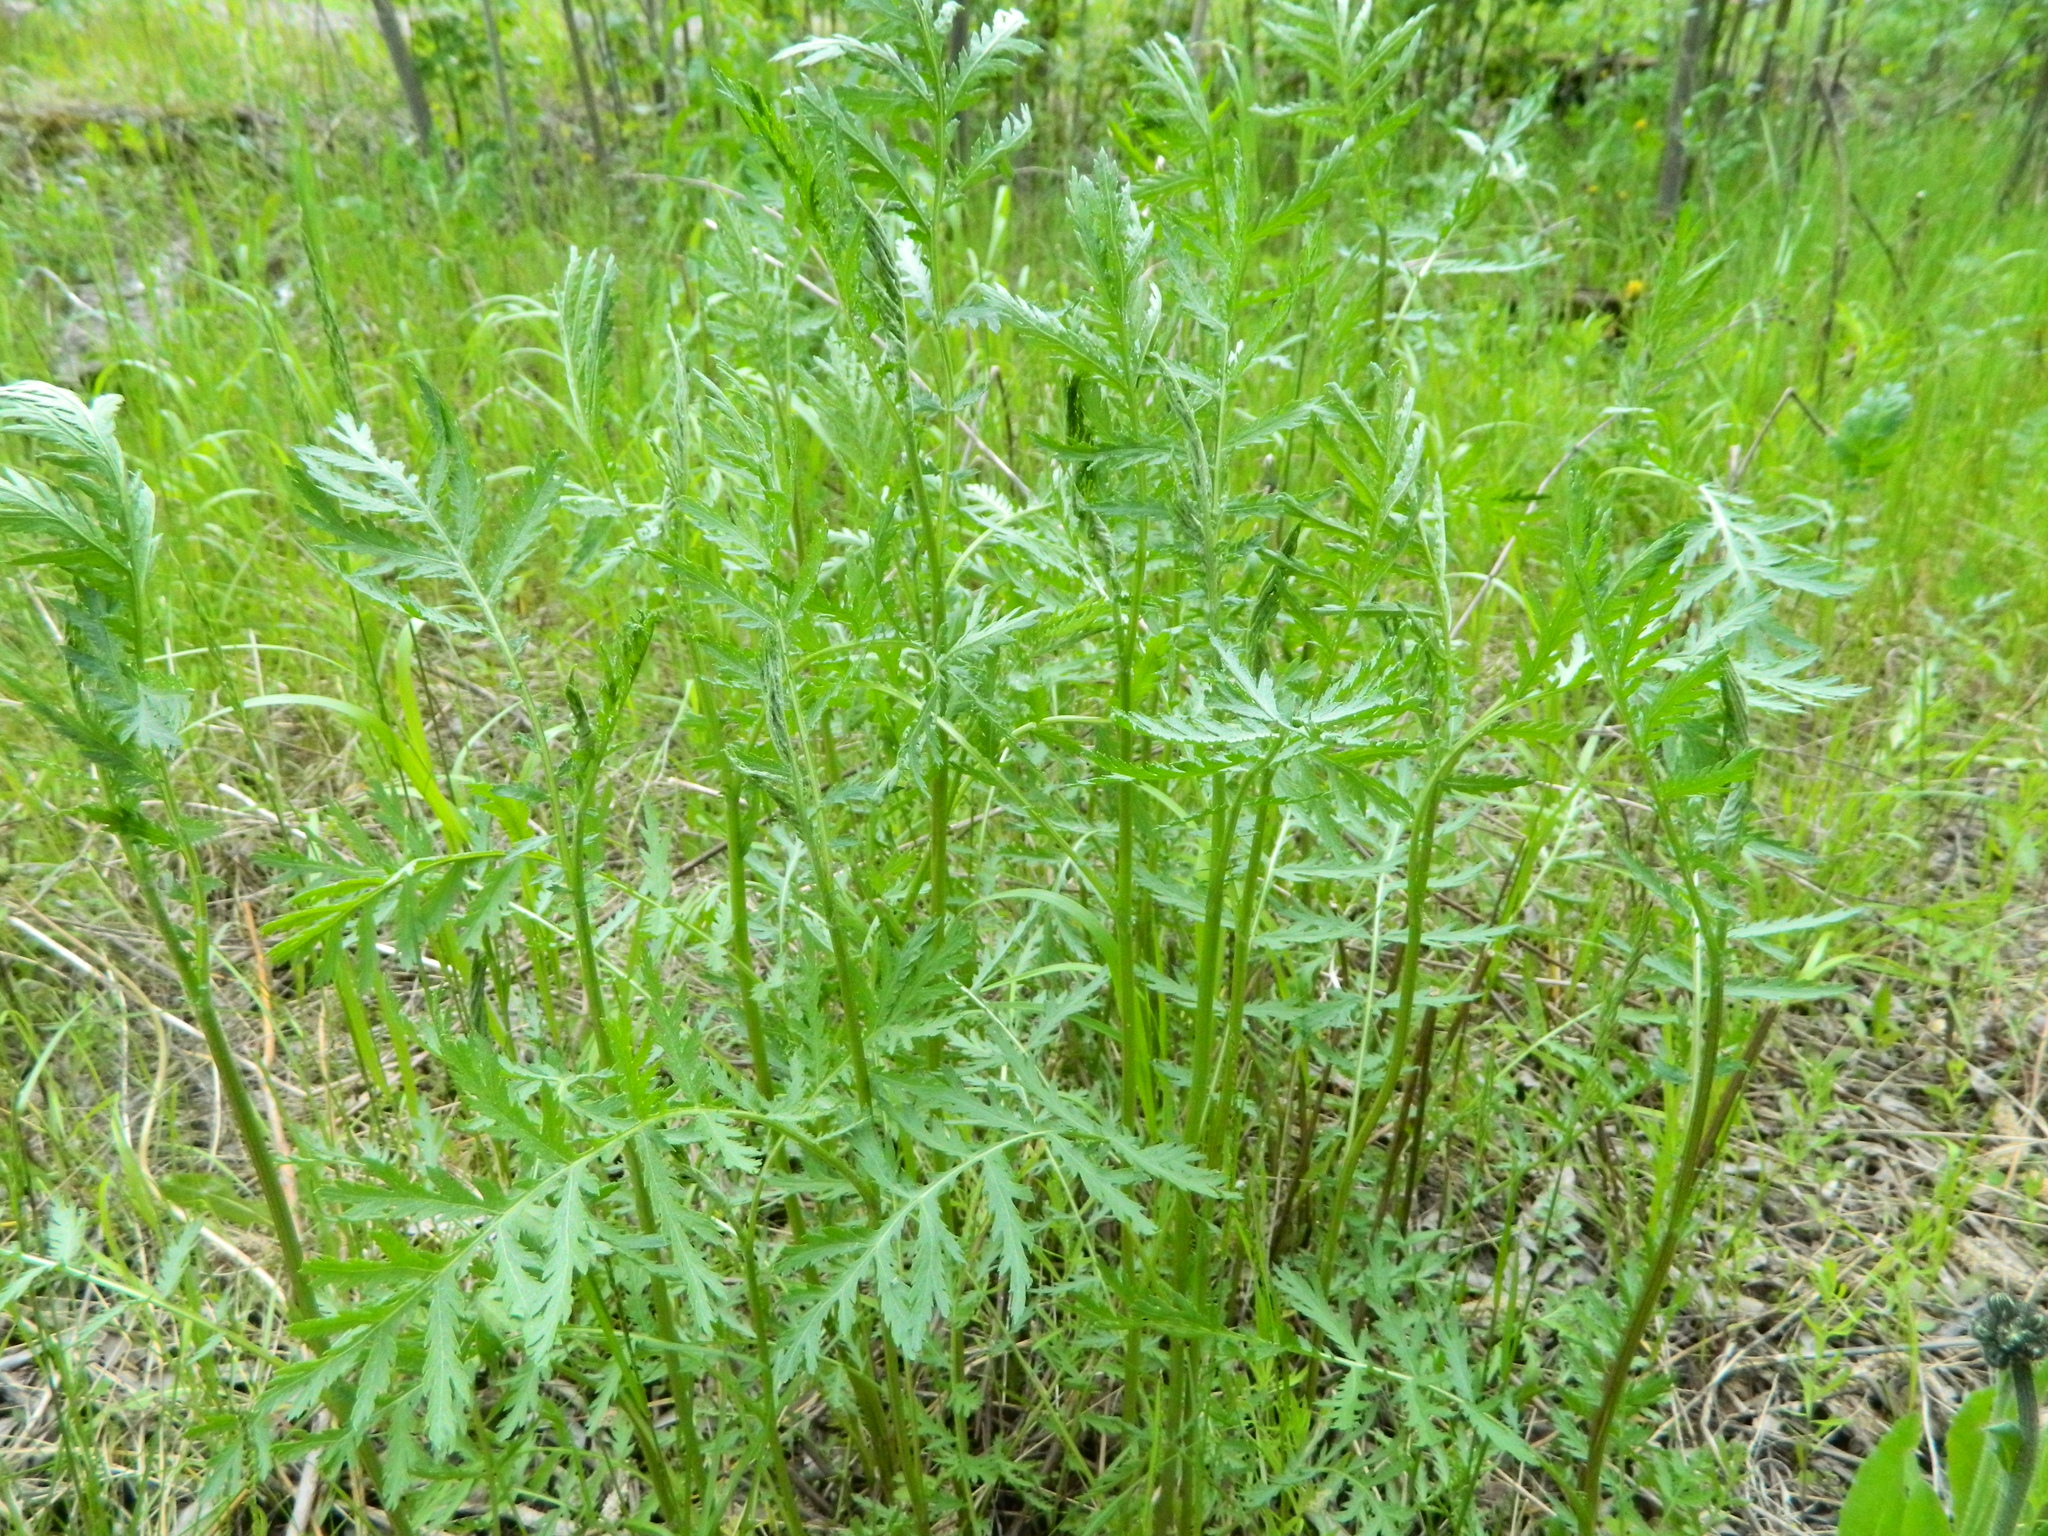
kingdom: Plantae
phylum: Tracheophyta
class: Magnoliopsida
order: Asterales
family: Asteraceae
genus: Tanacetum
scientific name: Tanacetum vulgare
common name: Common tansy
